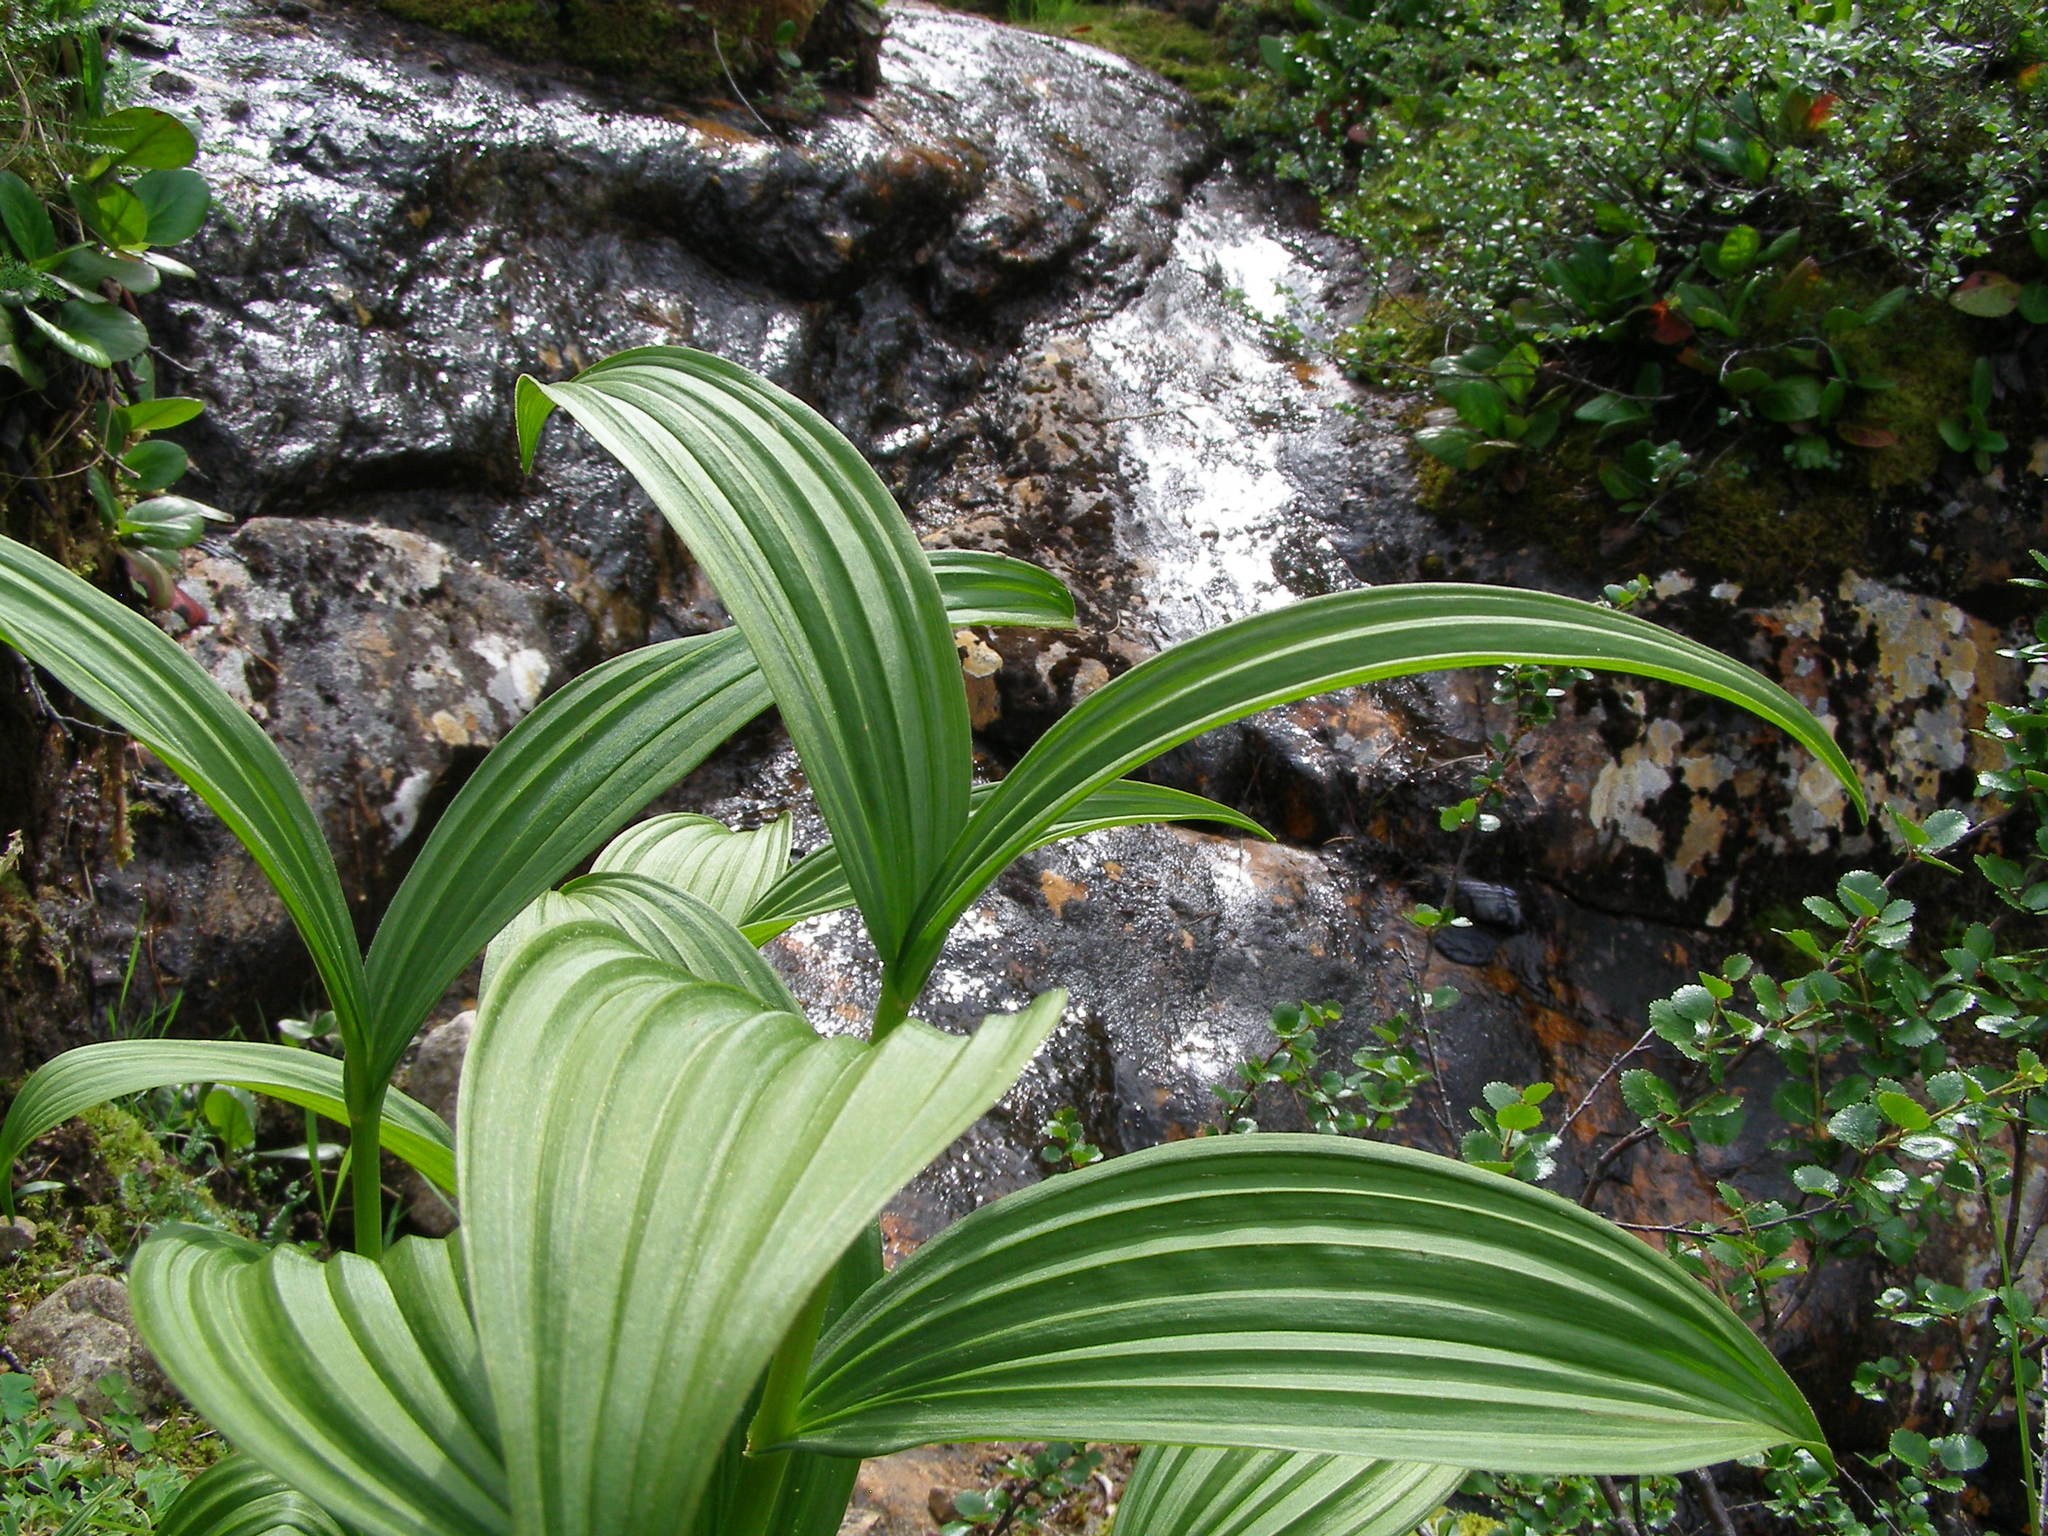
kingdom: Plantae
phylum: Tracheophyta
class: Liliopsida
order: Liliales
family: Melanthiaceae
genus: Veratrum
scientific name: Veratrum lobelianum
